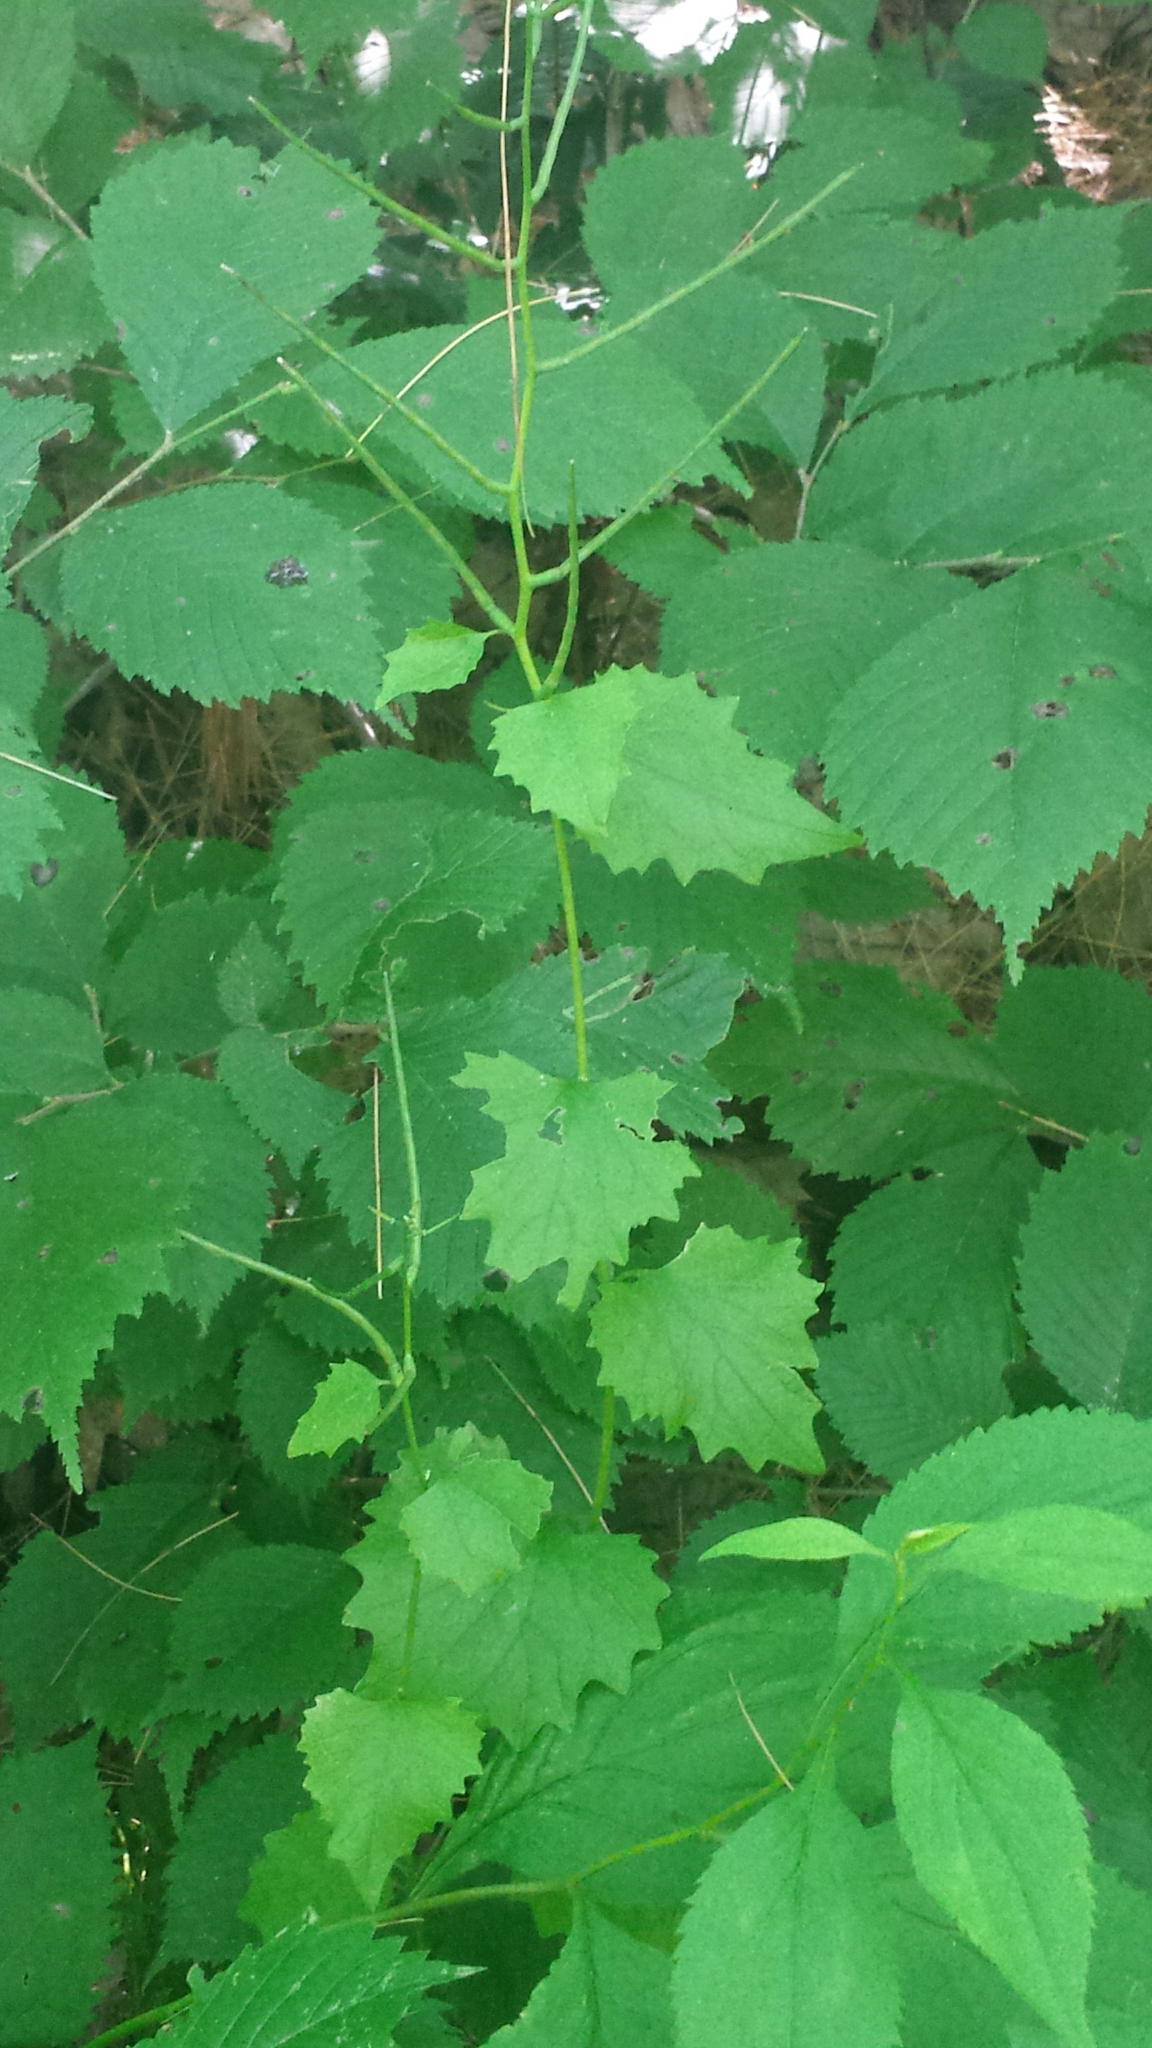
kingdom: Plantae
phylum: Tracheophyta
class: Magnoliopsida
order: Brassicales
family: Brassicaceae
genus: Alliaria
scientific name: Alliaria petiolata
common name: Garlic mustard
